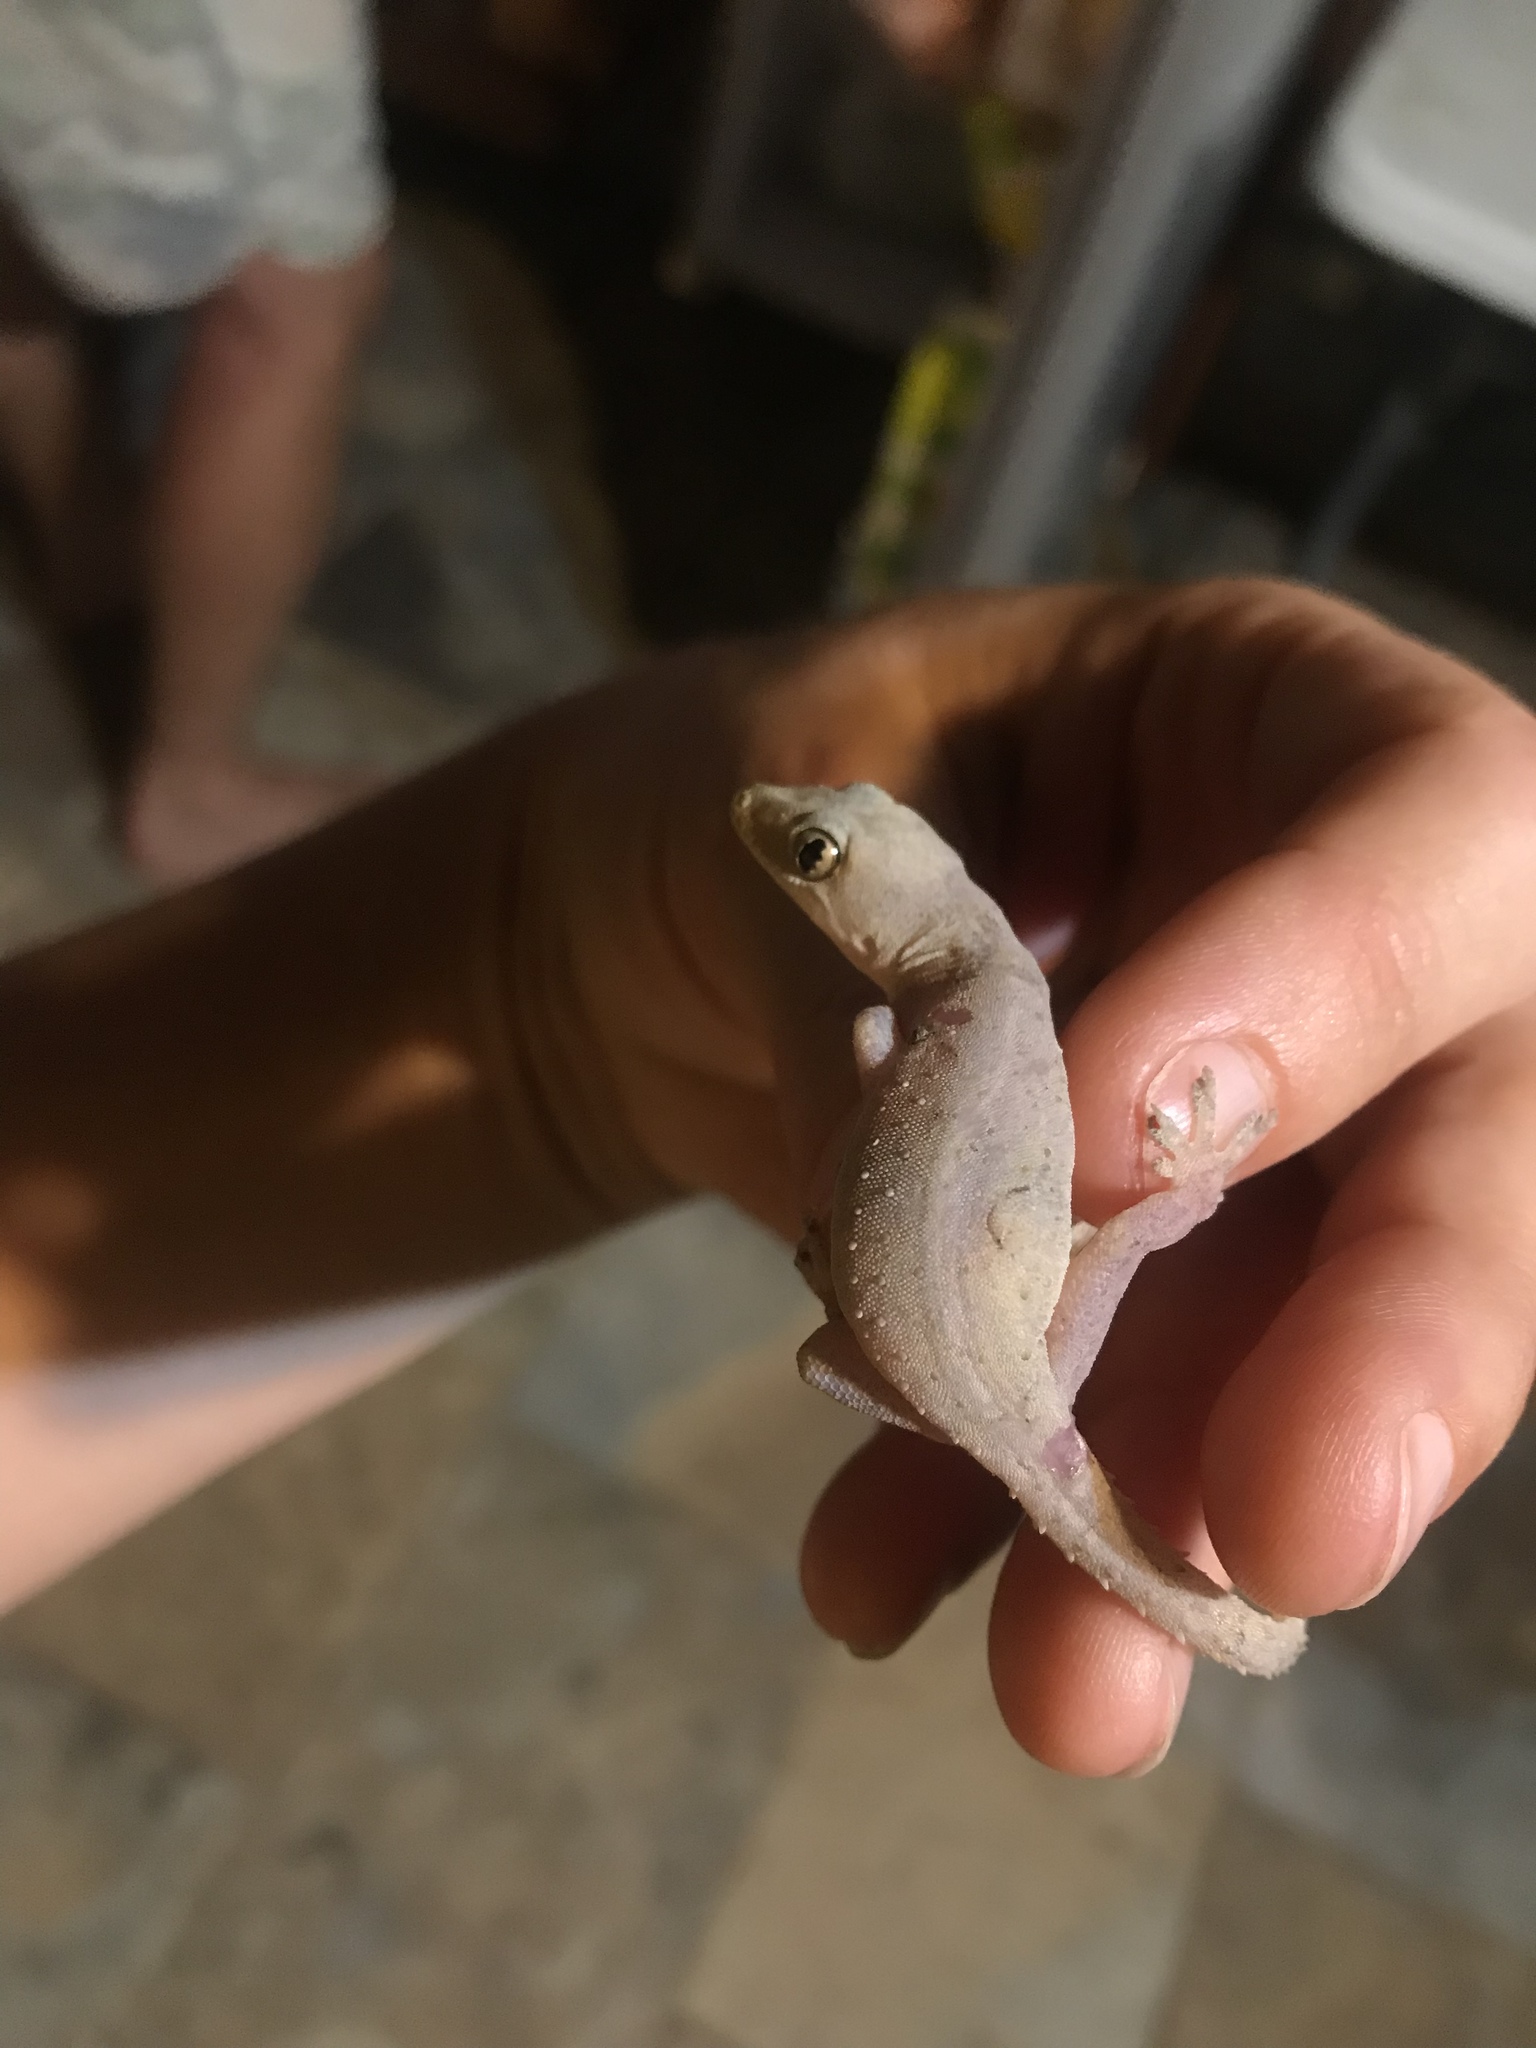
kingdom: Animalia
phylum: Chordata
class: Squamata
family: Gekkonidae
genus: Hemidactylus
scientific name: Hemidactylus frenatus
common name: Common house gecko
